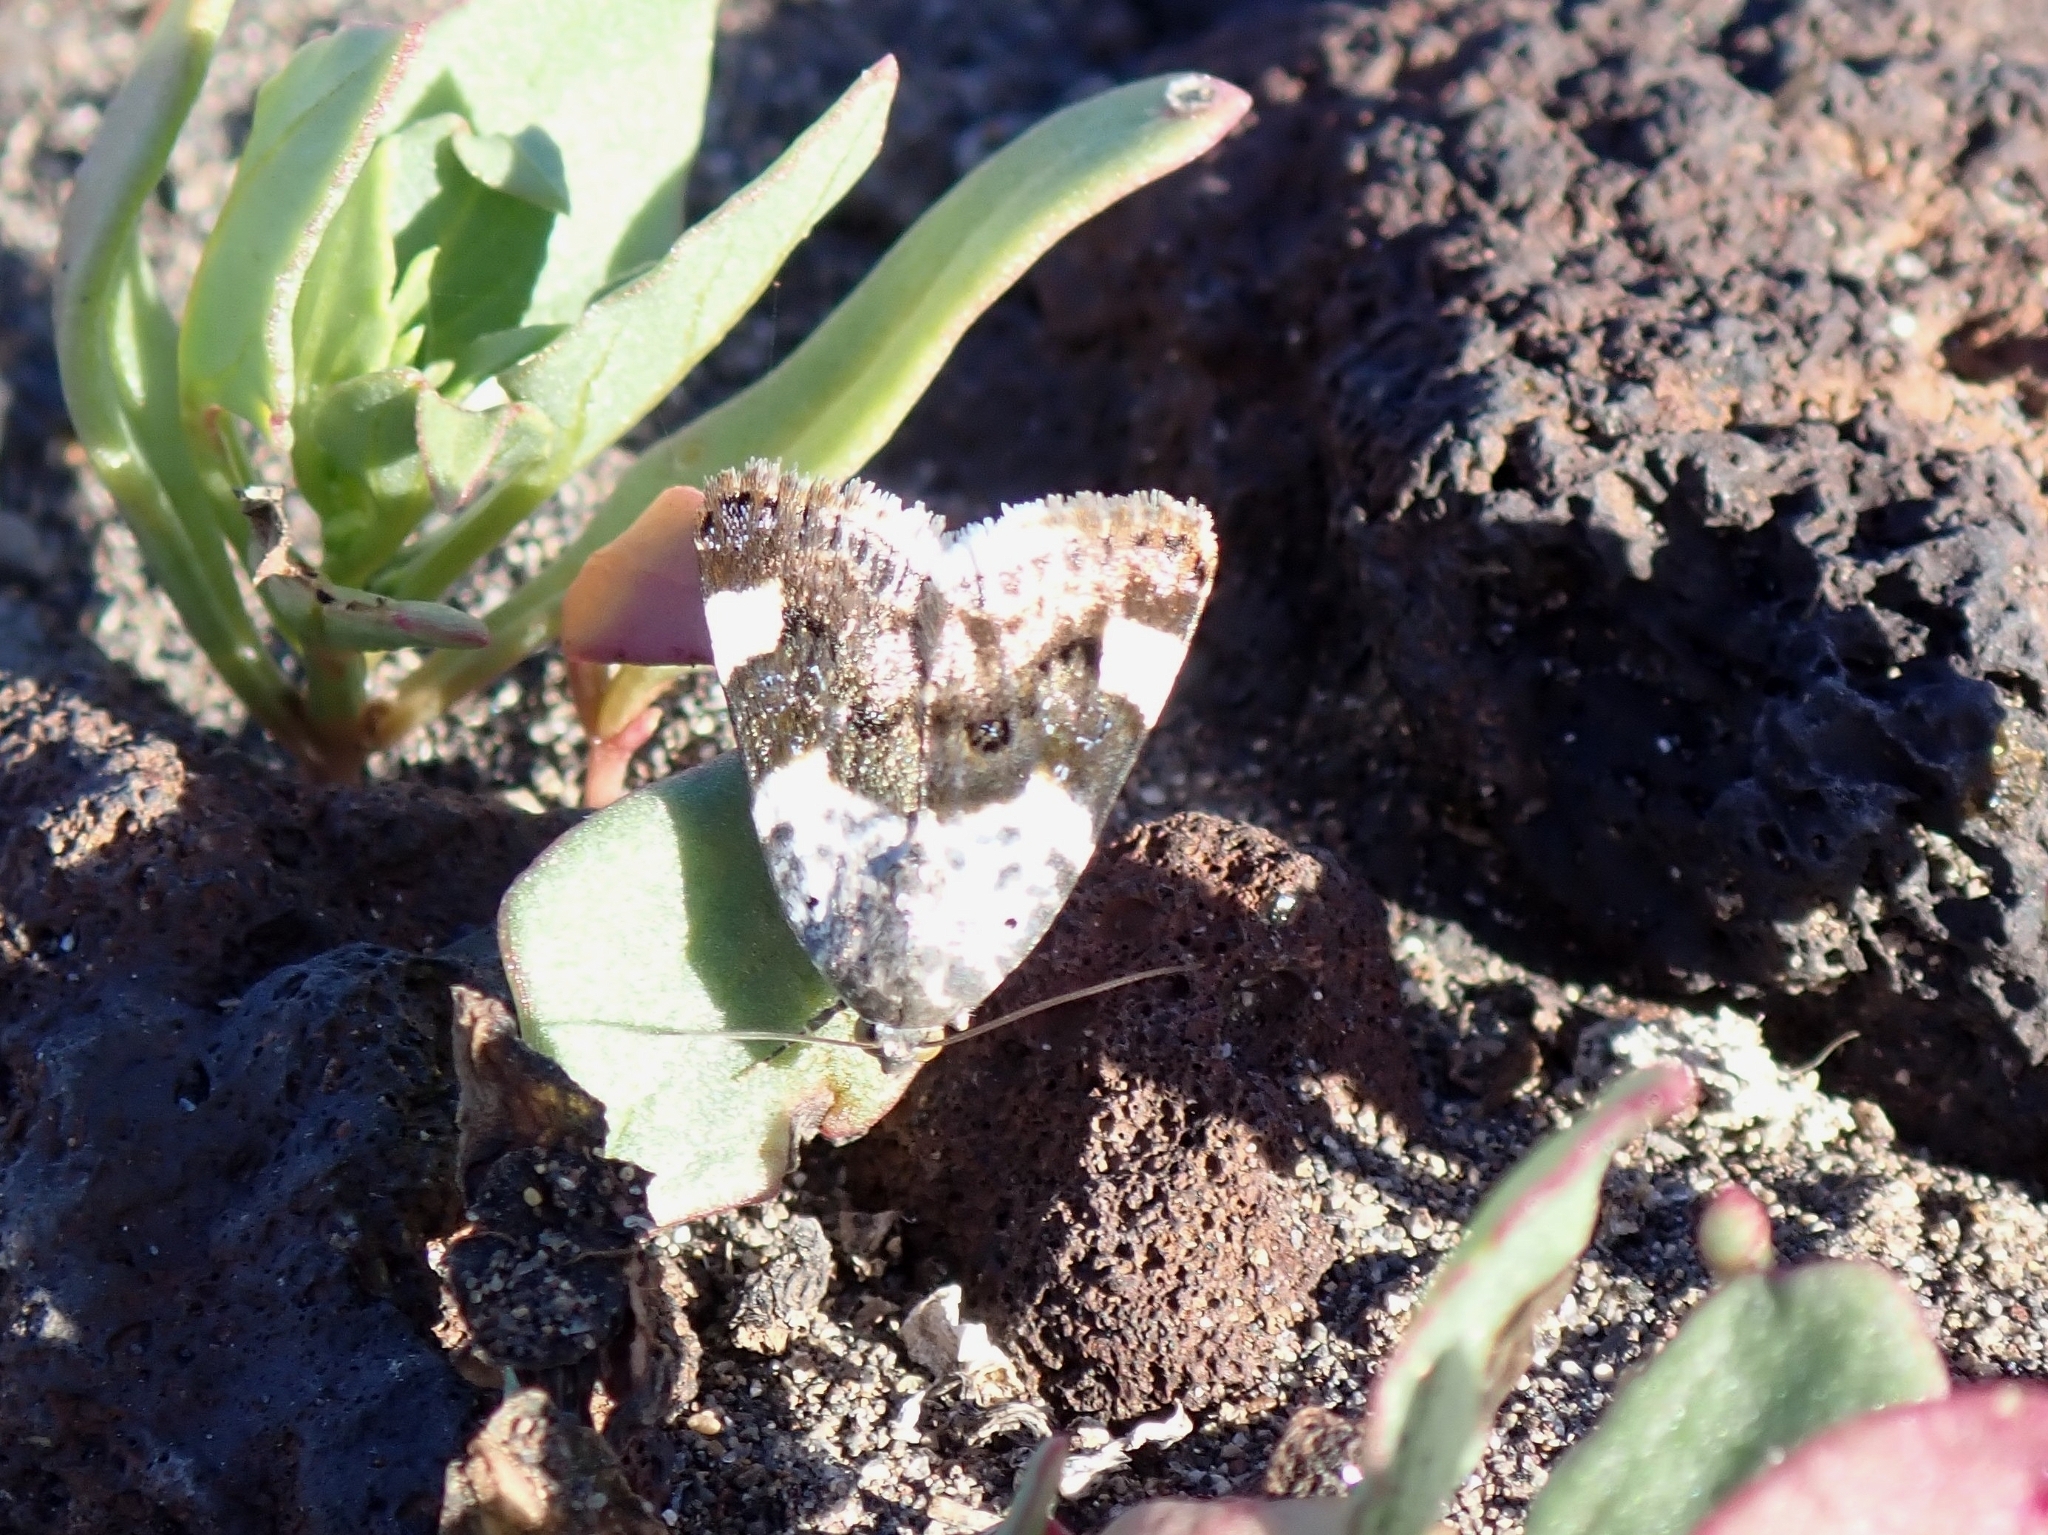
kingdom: Animalia
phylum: Arthropoda
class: Insecta
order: Lepidoptera
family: Noctuidae
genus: Acontia
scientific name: Acontia lucida
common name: Pale shoulder
